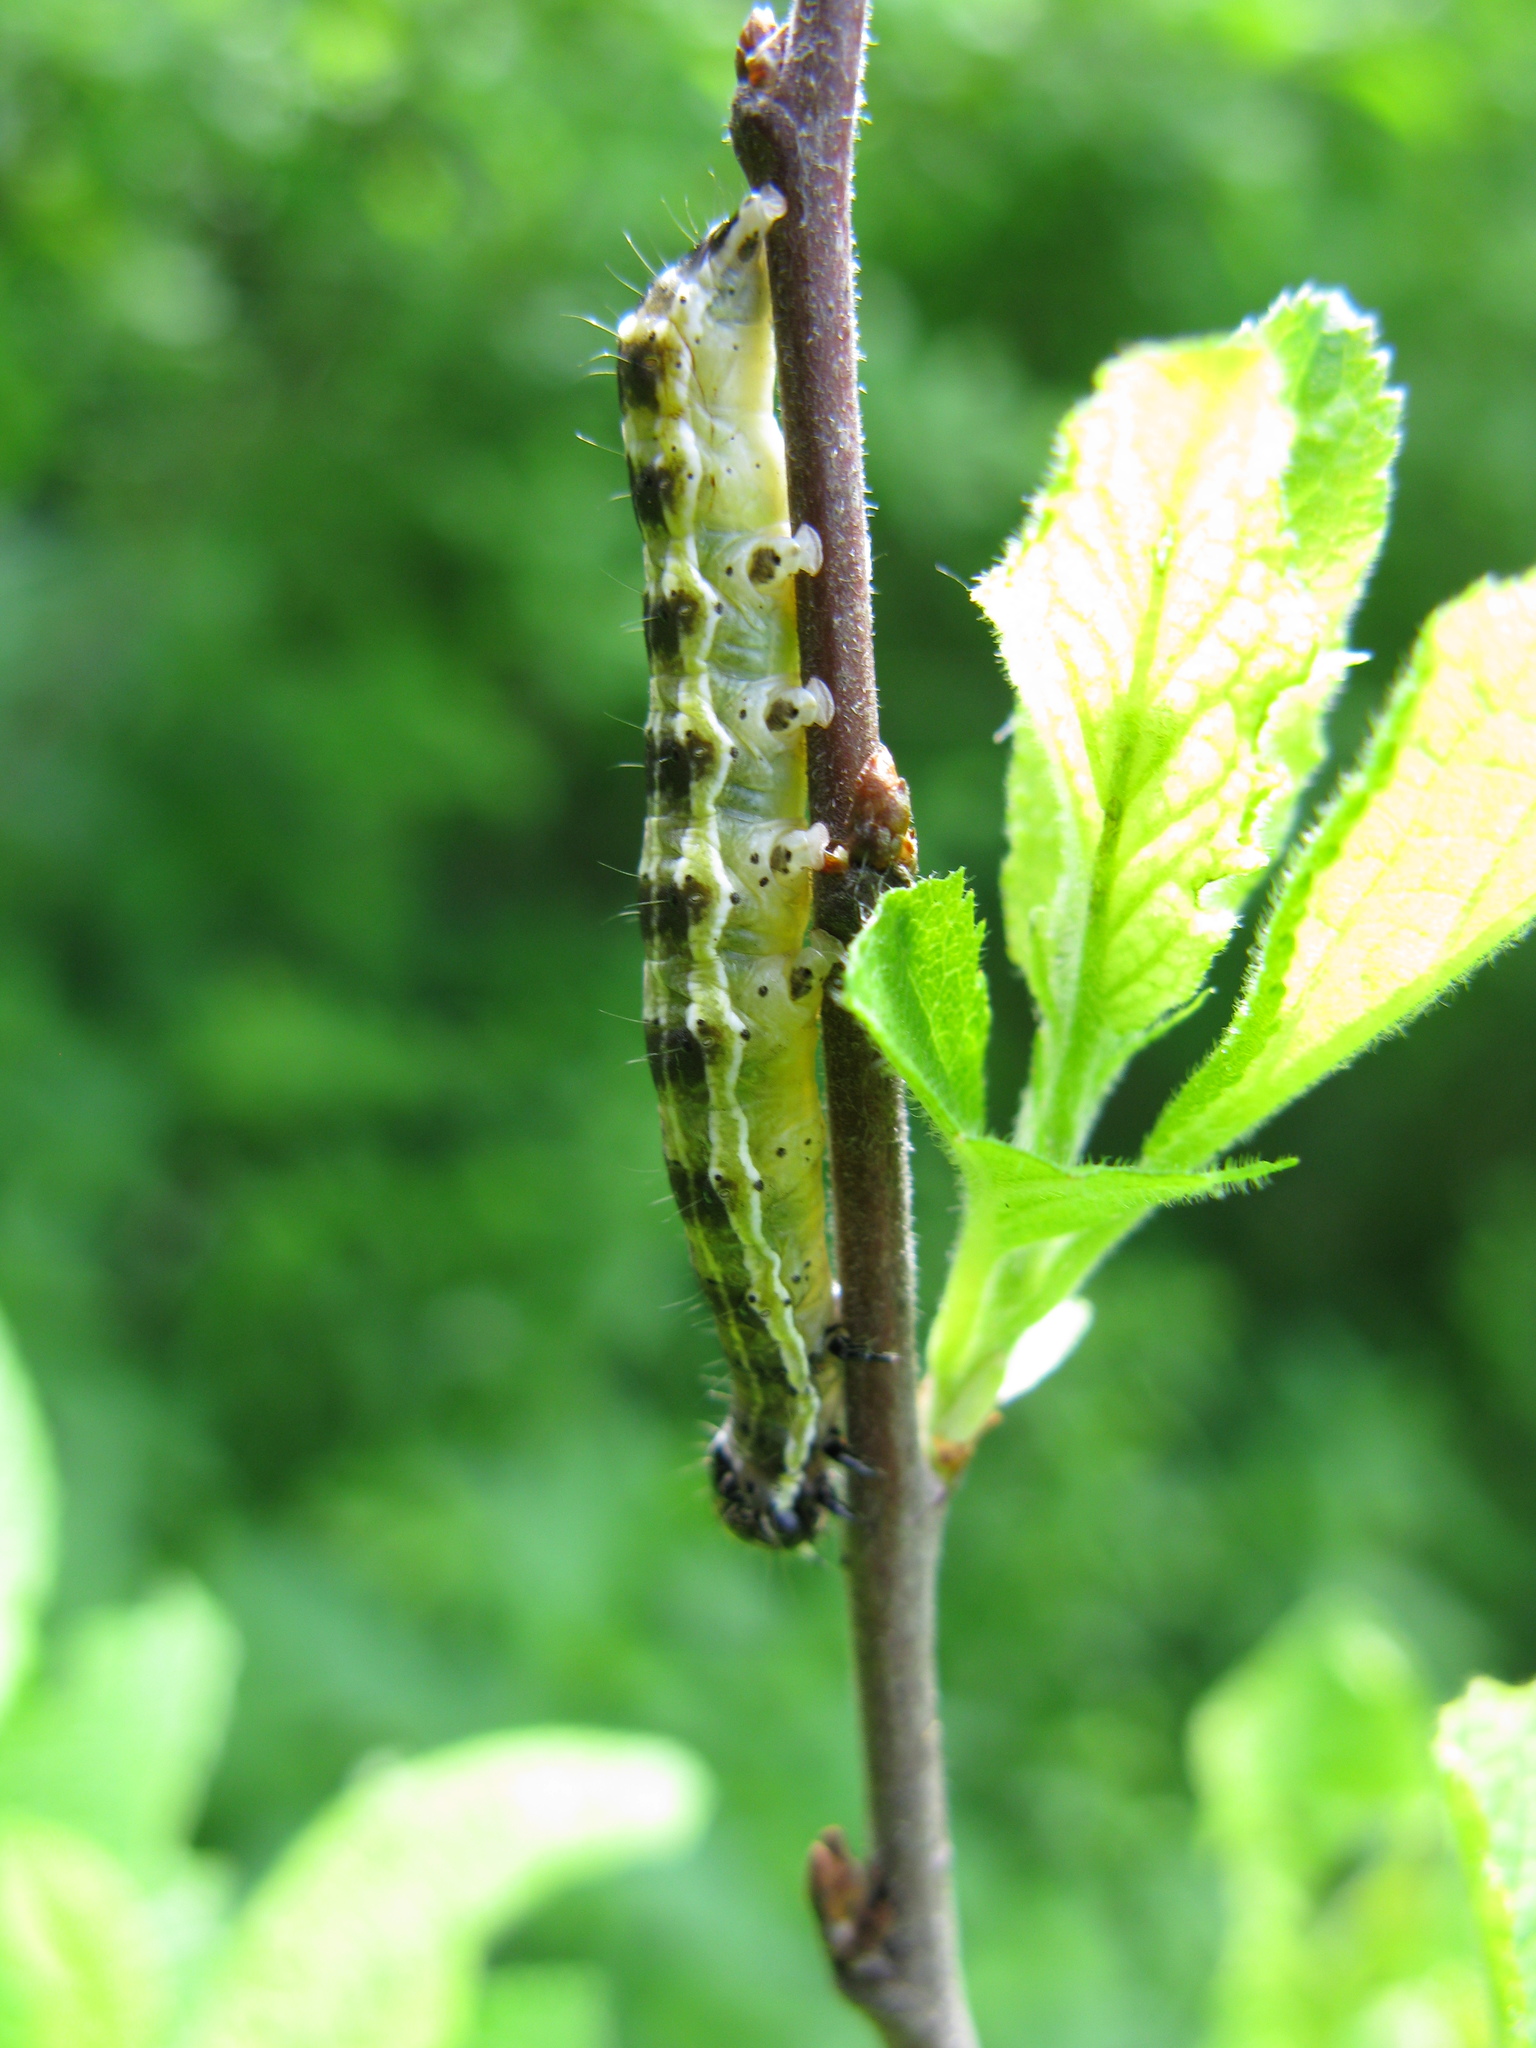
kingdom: Animalia
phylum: Arthropoda
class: Insecta
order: Lepidoptera
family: Noctuidae
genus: Orthosia
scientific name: Orthosia cruda
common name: Small quaker
